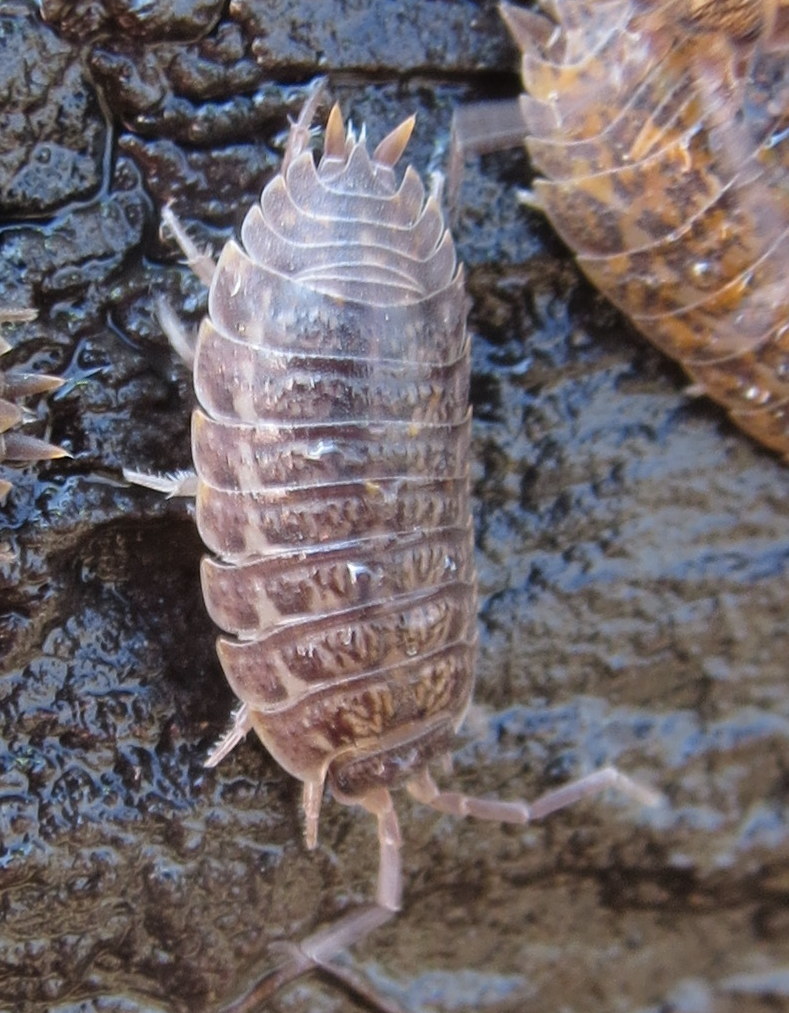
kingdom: Animalia
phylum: Arthropoda
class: Malacostraca
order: Isopoda
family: Trachelipodidae
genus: Trachelipus
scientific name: Trachelipus rathkii
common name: Isopod
